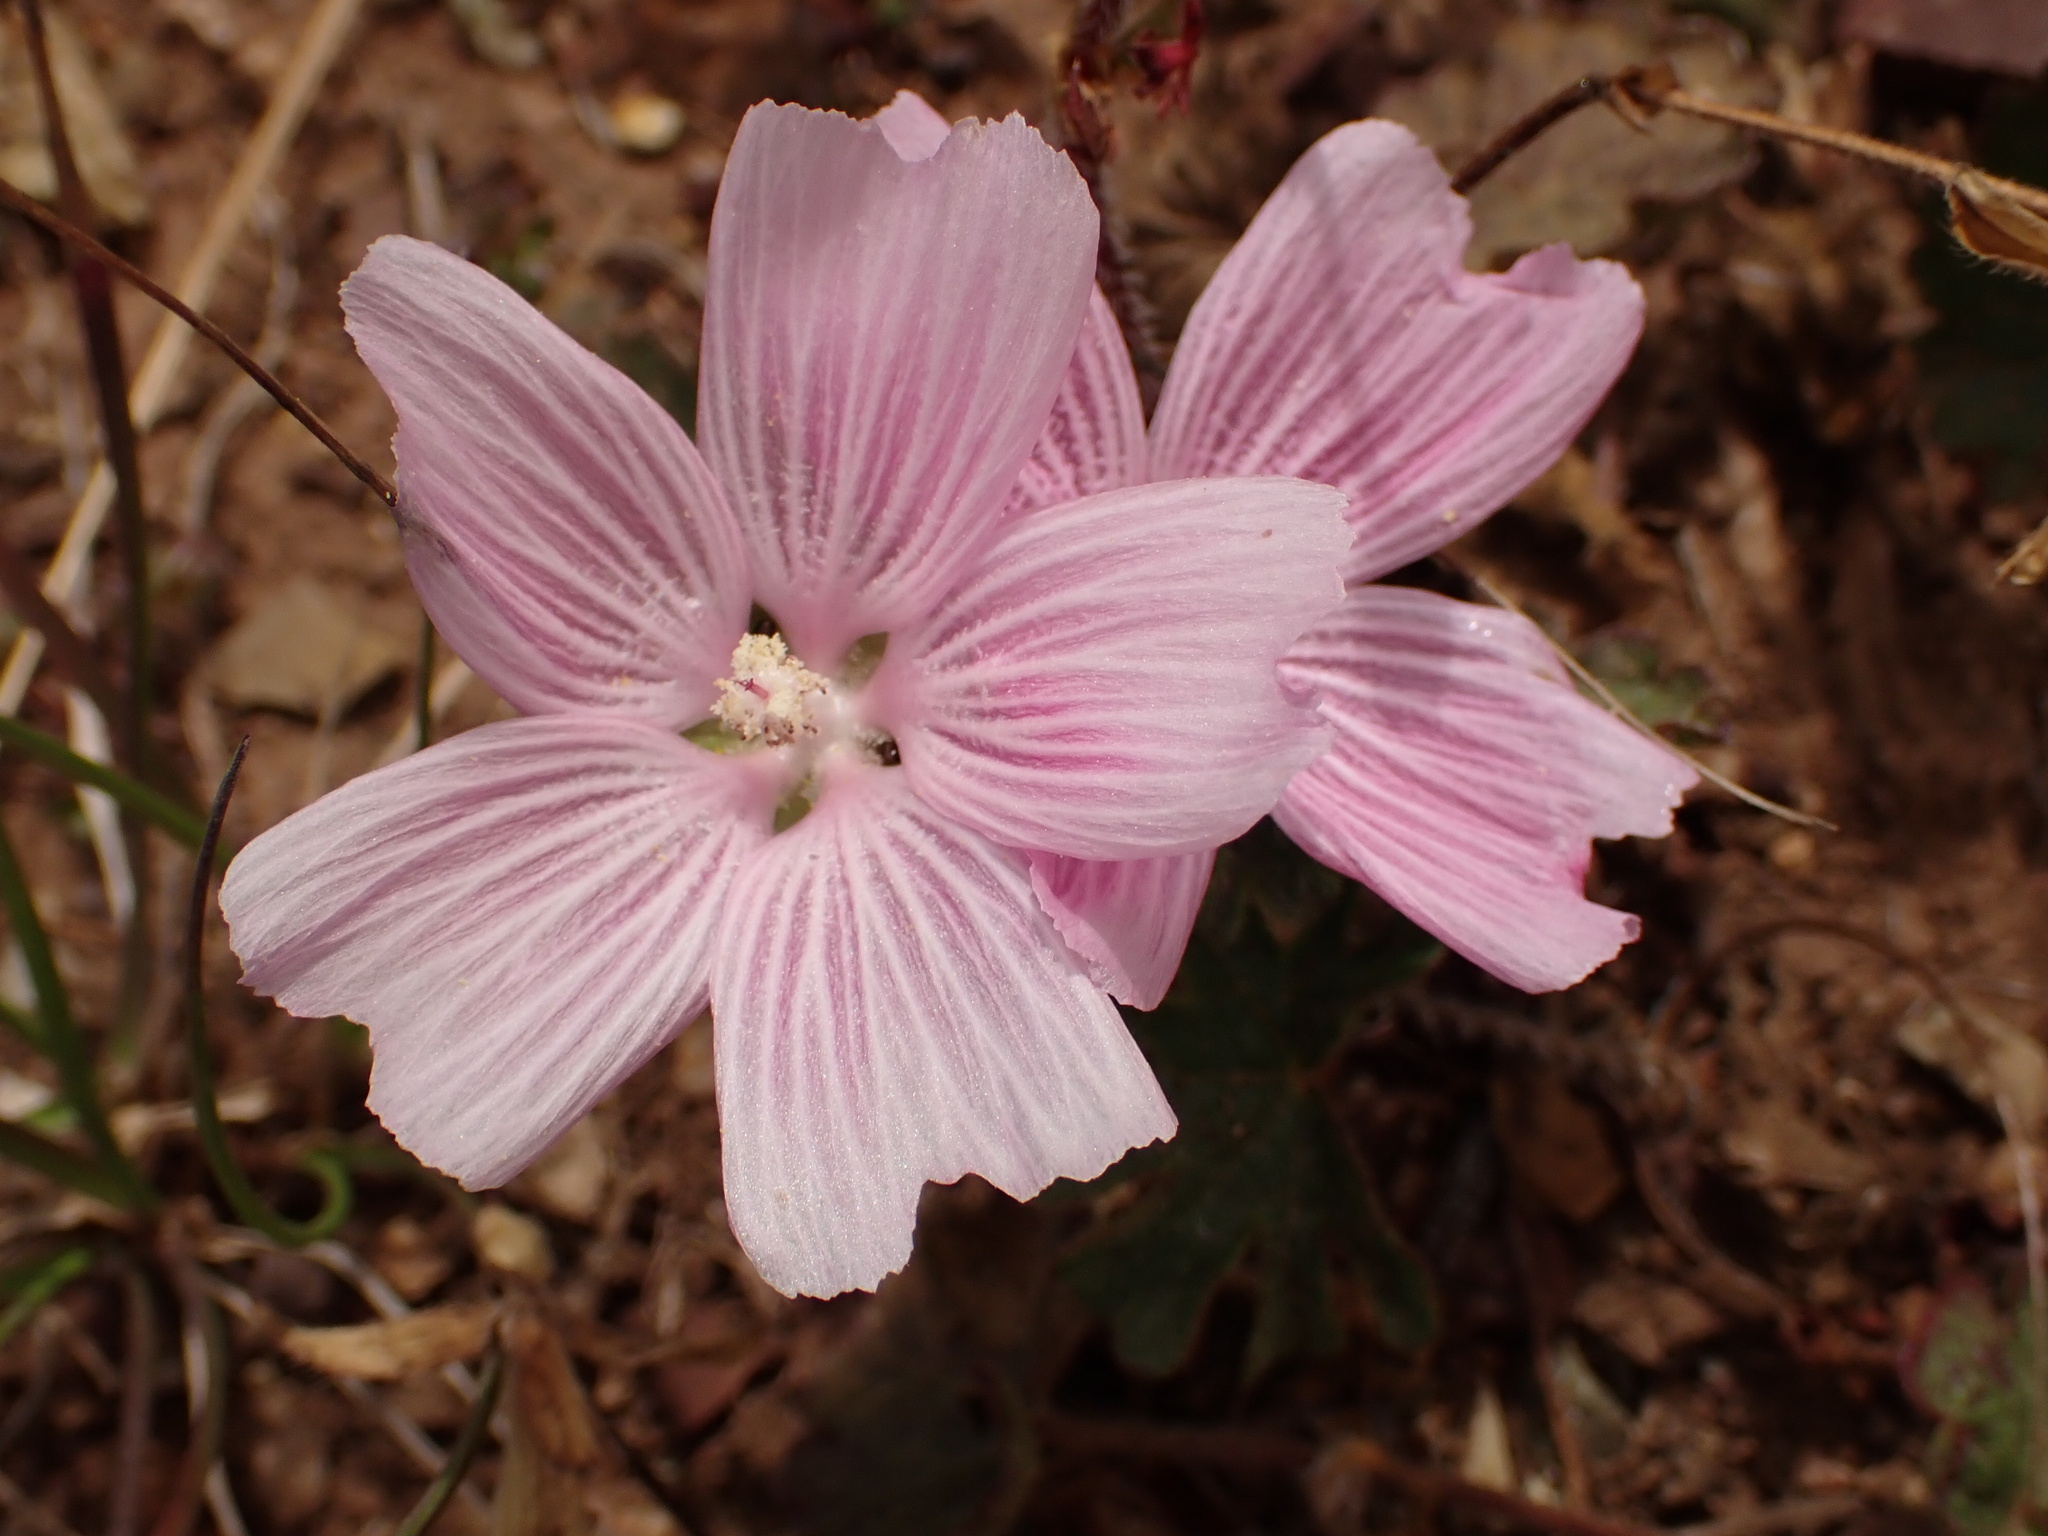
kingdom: Plantae
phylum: Tracheophyta
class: Magnoliopsida
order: Malvales
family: Malvaceae
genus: Sidalcea
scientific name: Sidalcea malviflora
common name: Greek mallow
